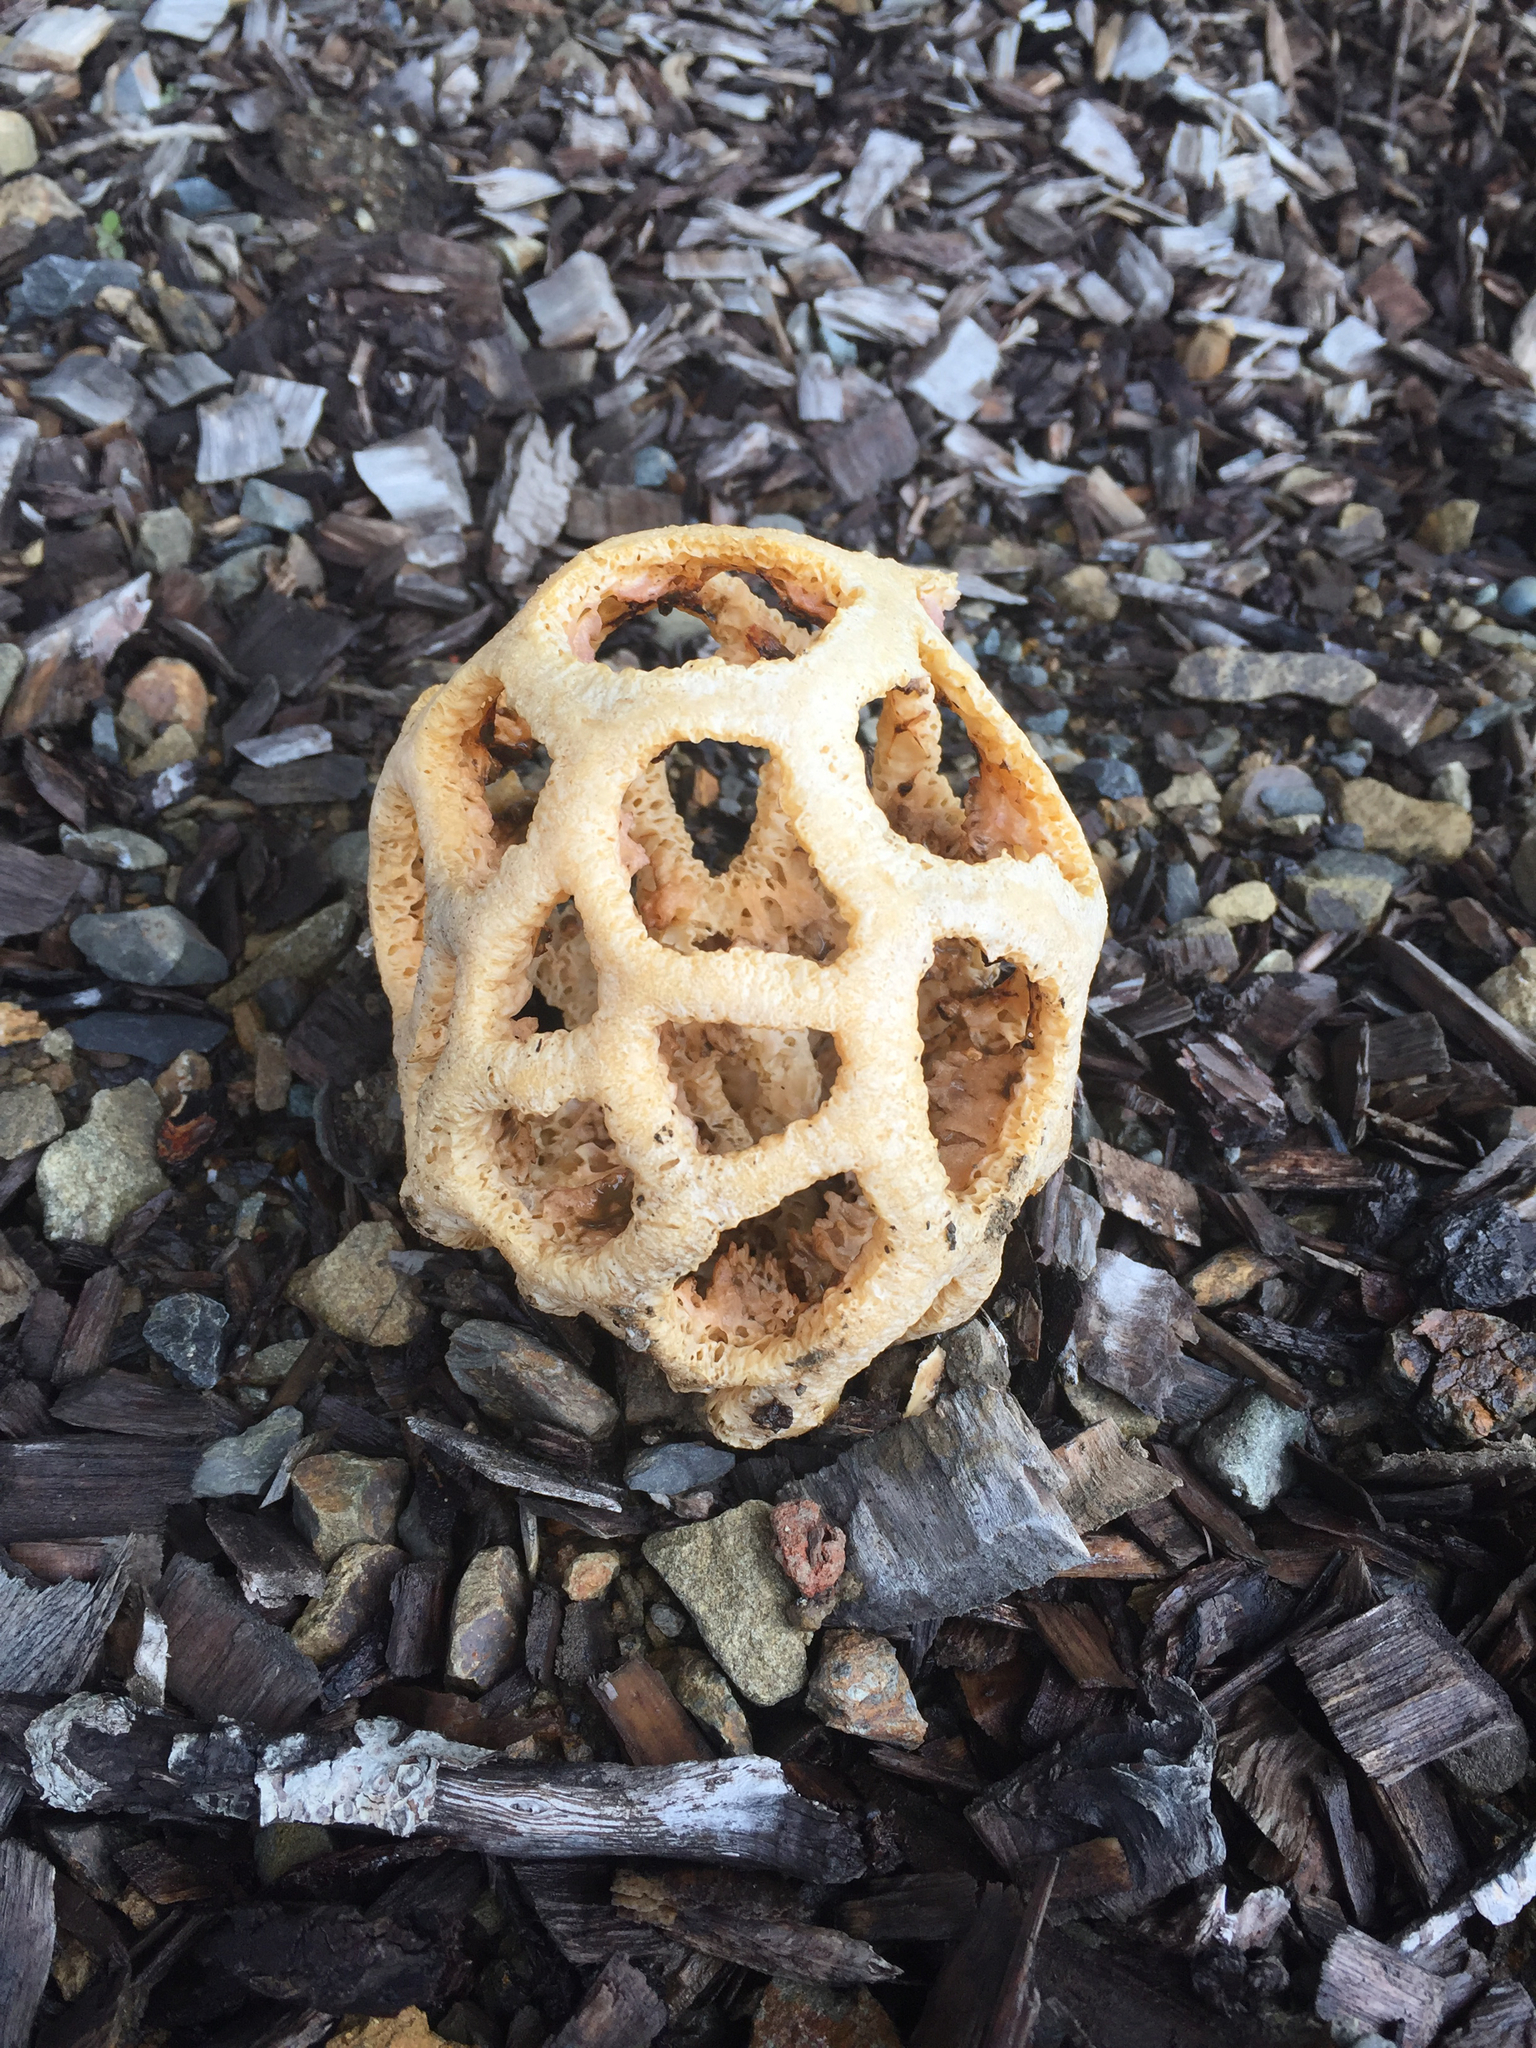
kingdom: Fungi
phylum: Basidiomycota
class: Agaricomycetes
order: Phallales
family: Phallaceae
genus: Clathrus
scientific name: Clathrus ruber
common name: Red cage
